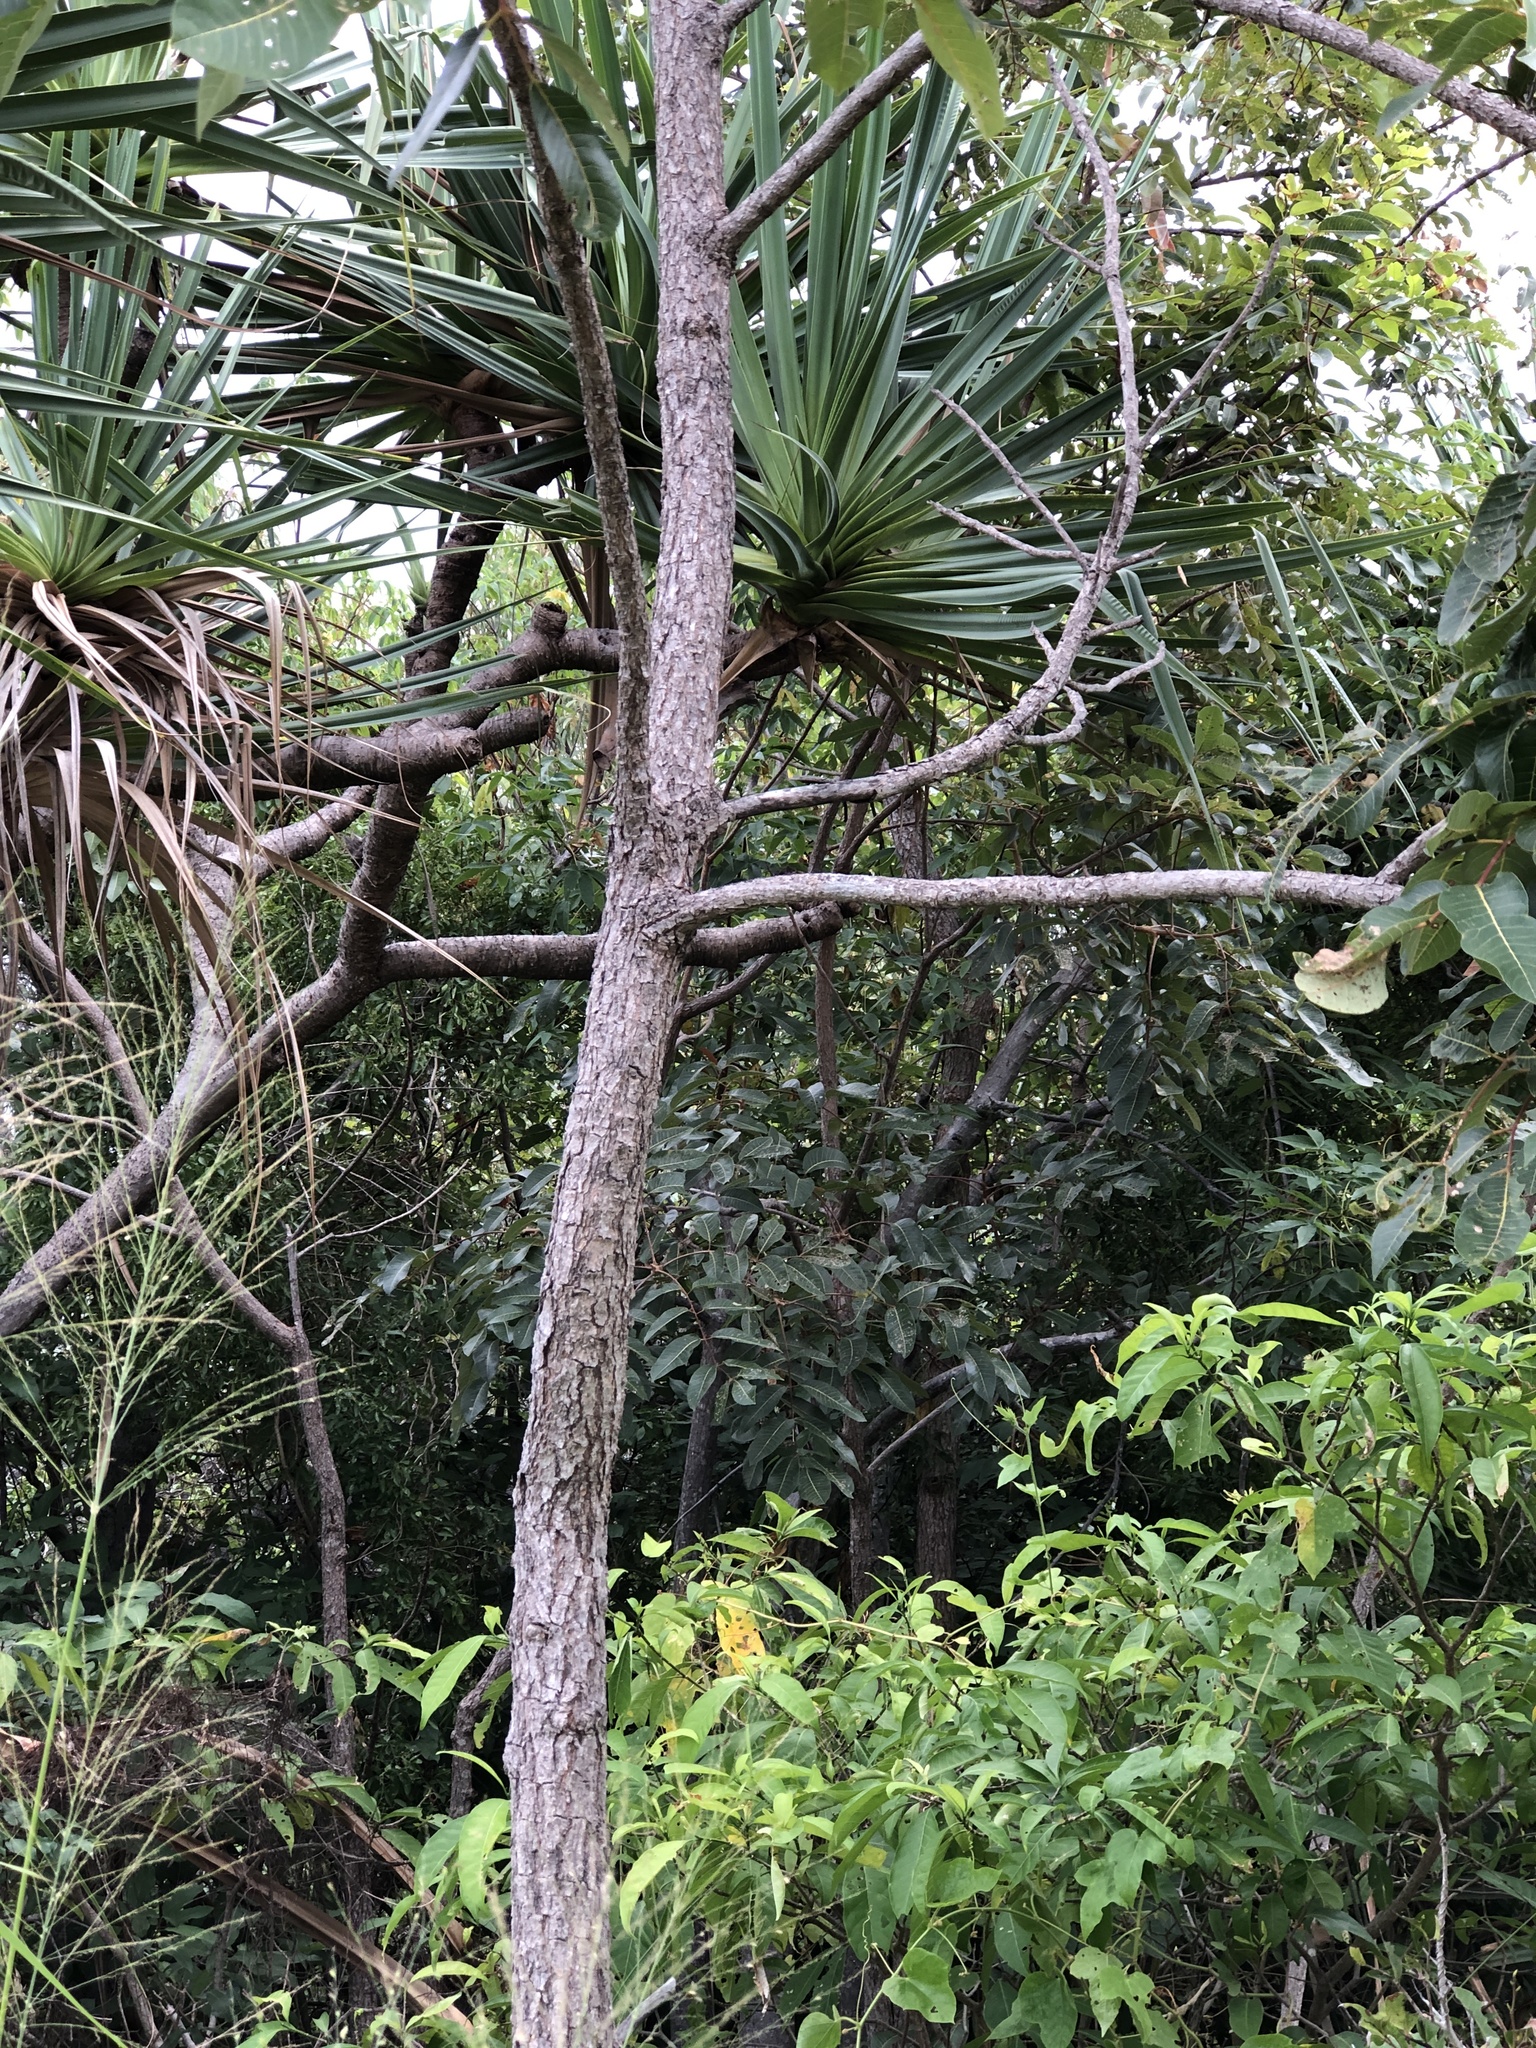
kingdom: Plantae
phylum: Tracheophyta
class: Magnoliopsida
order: Sapindales
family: Burseraceae
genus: Canarium
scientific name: Canarium australianum
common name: Island white-beech
